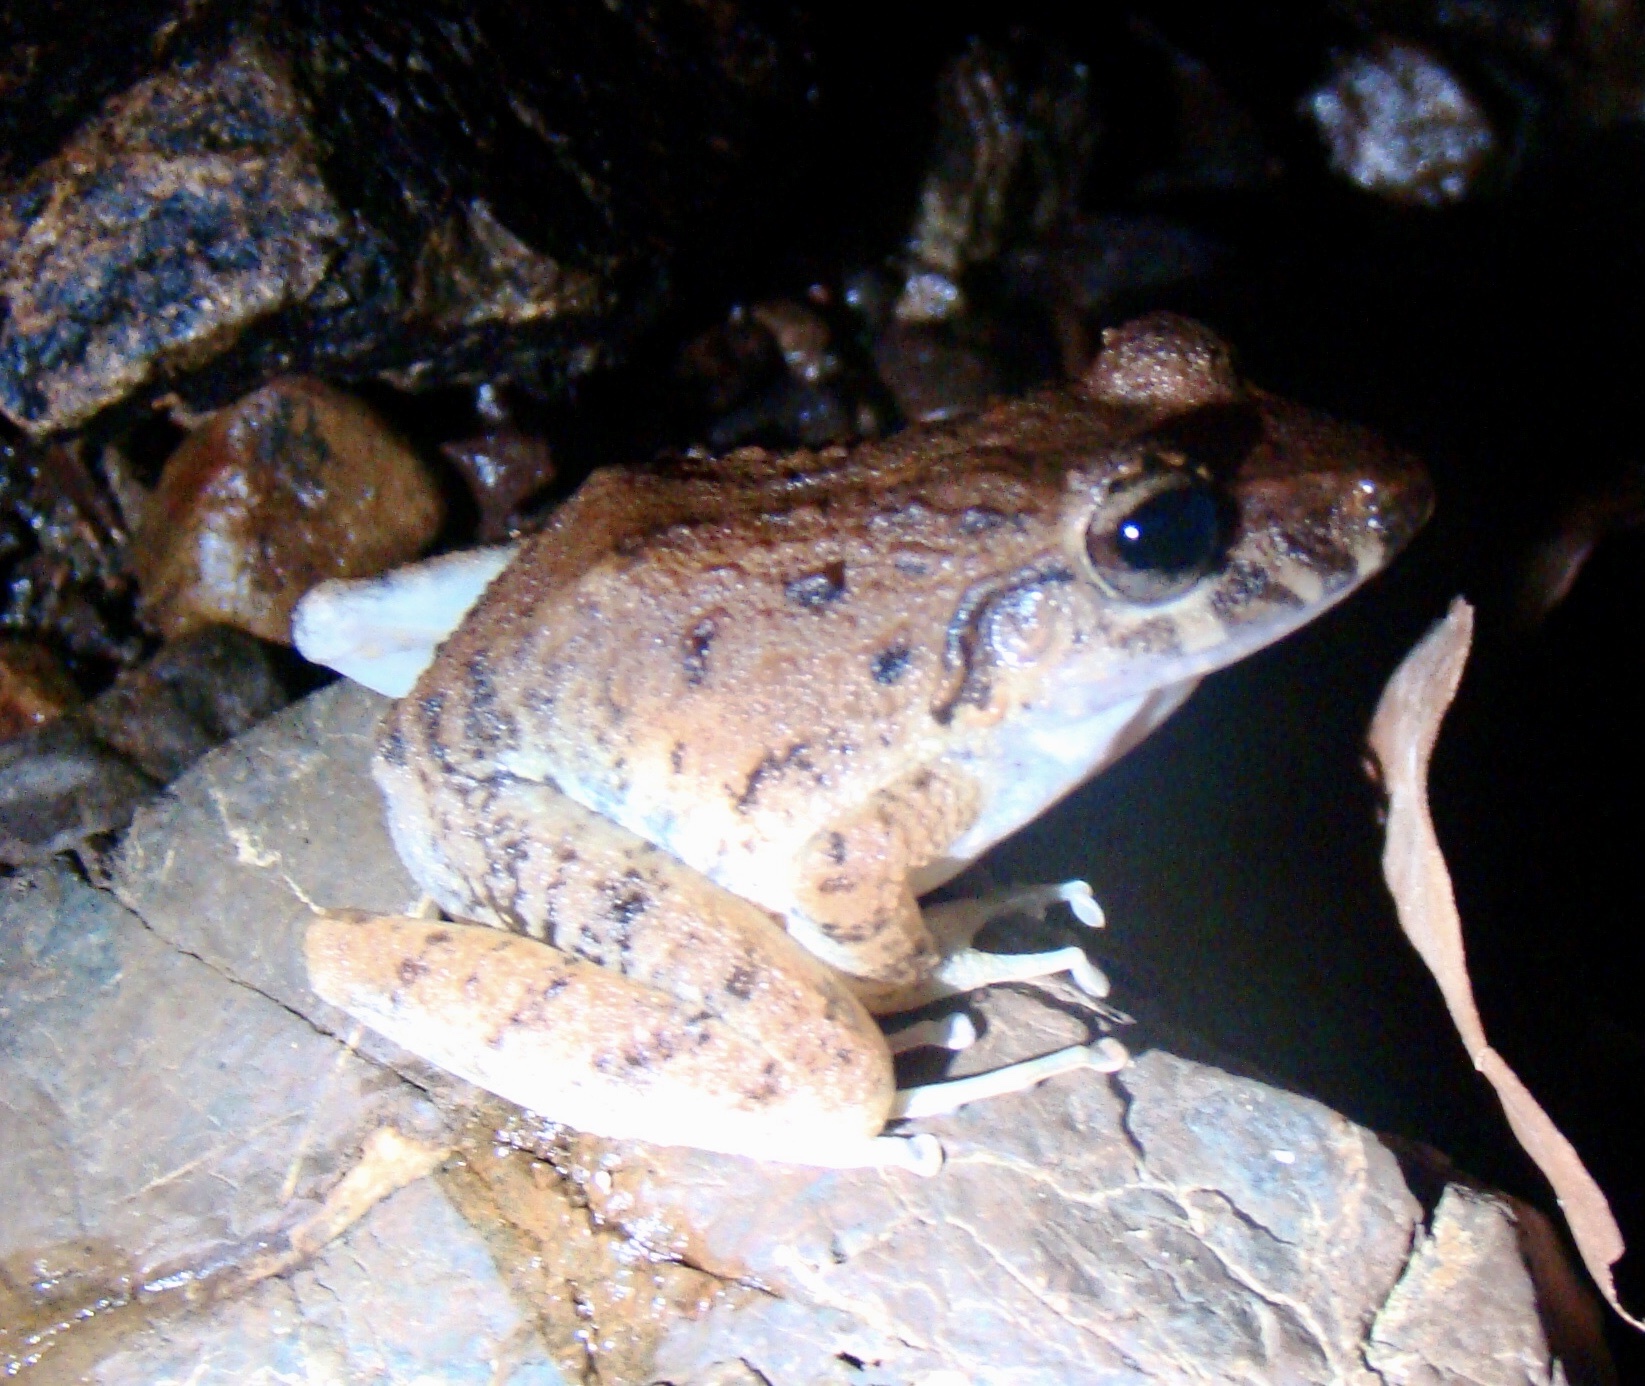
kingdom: Animalia
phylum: Chordata
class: Amphibia
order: Anura
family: Craugastoridae
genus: Craugastor
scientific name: Craugastor fitzingeri
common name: Fitzinger's robber frog
